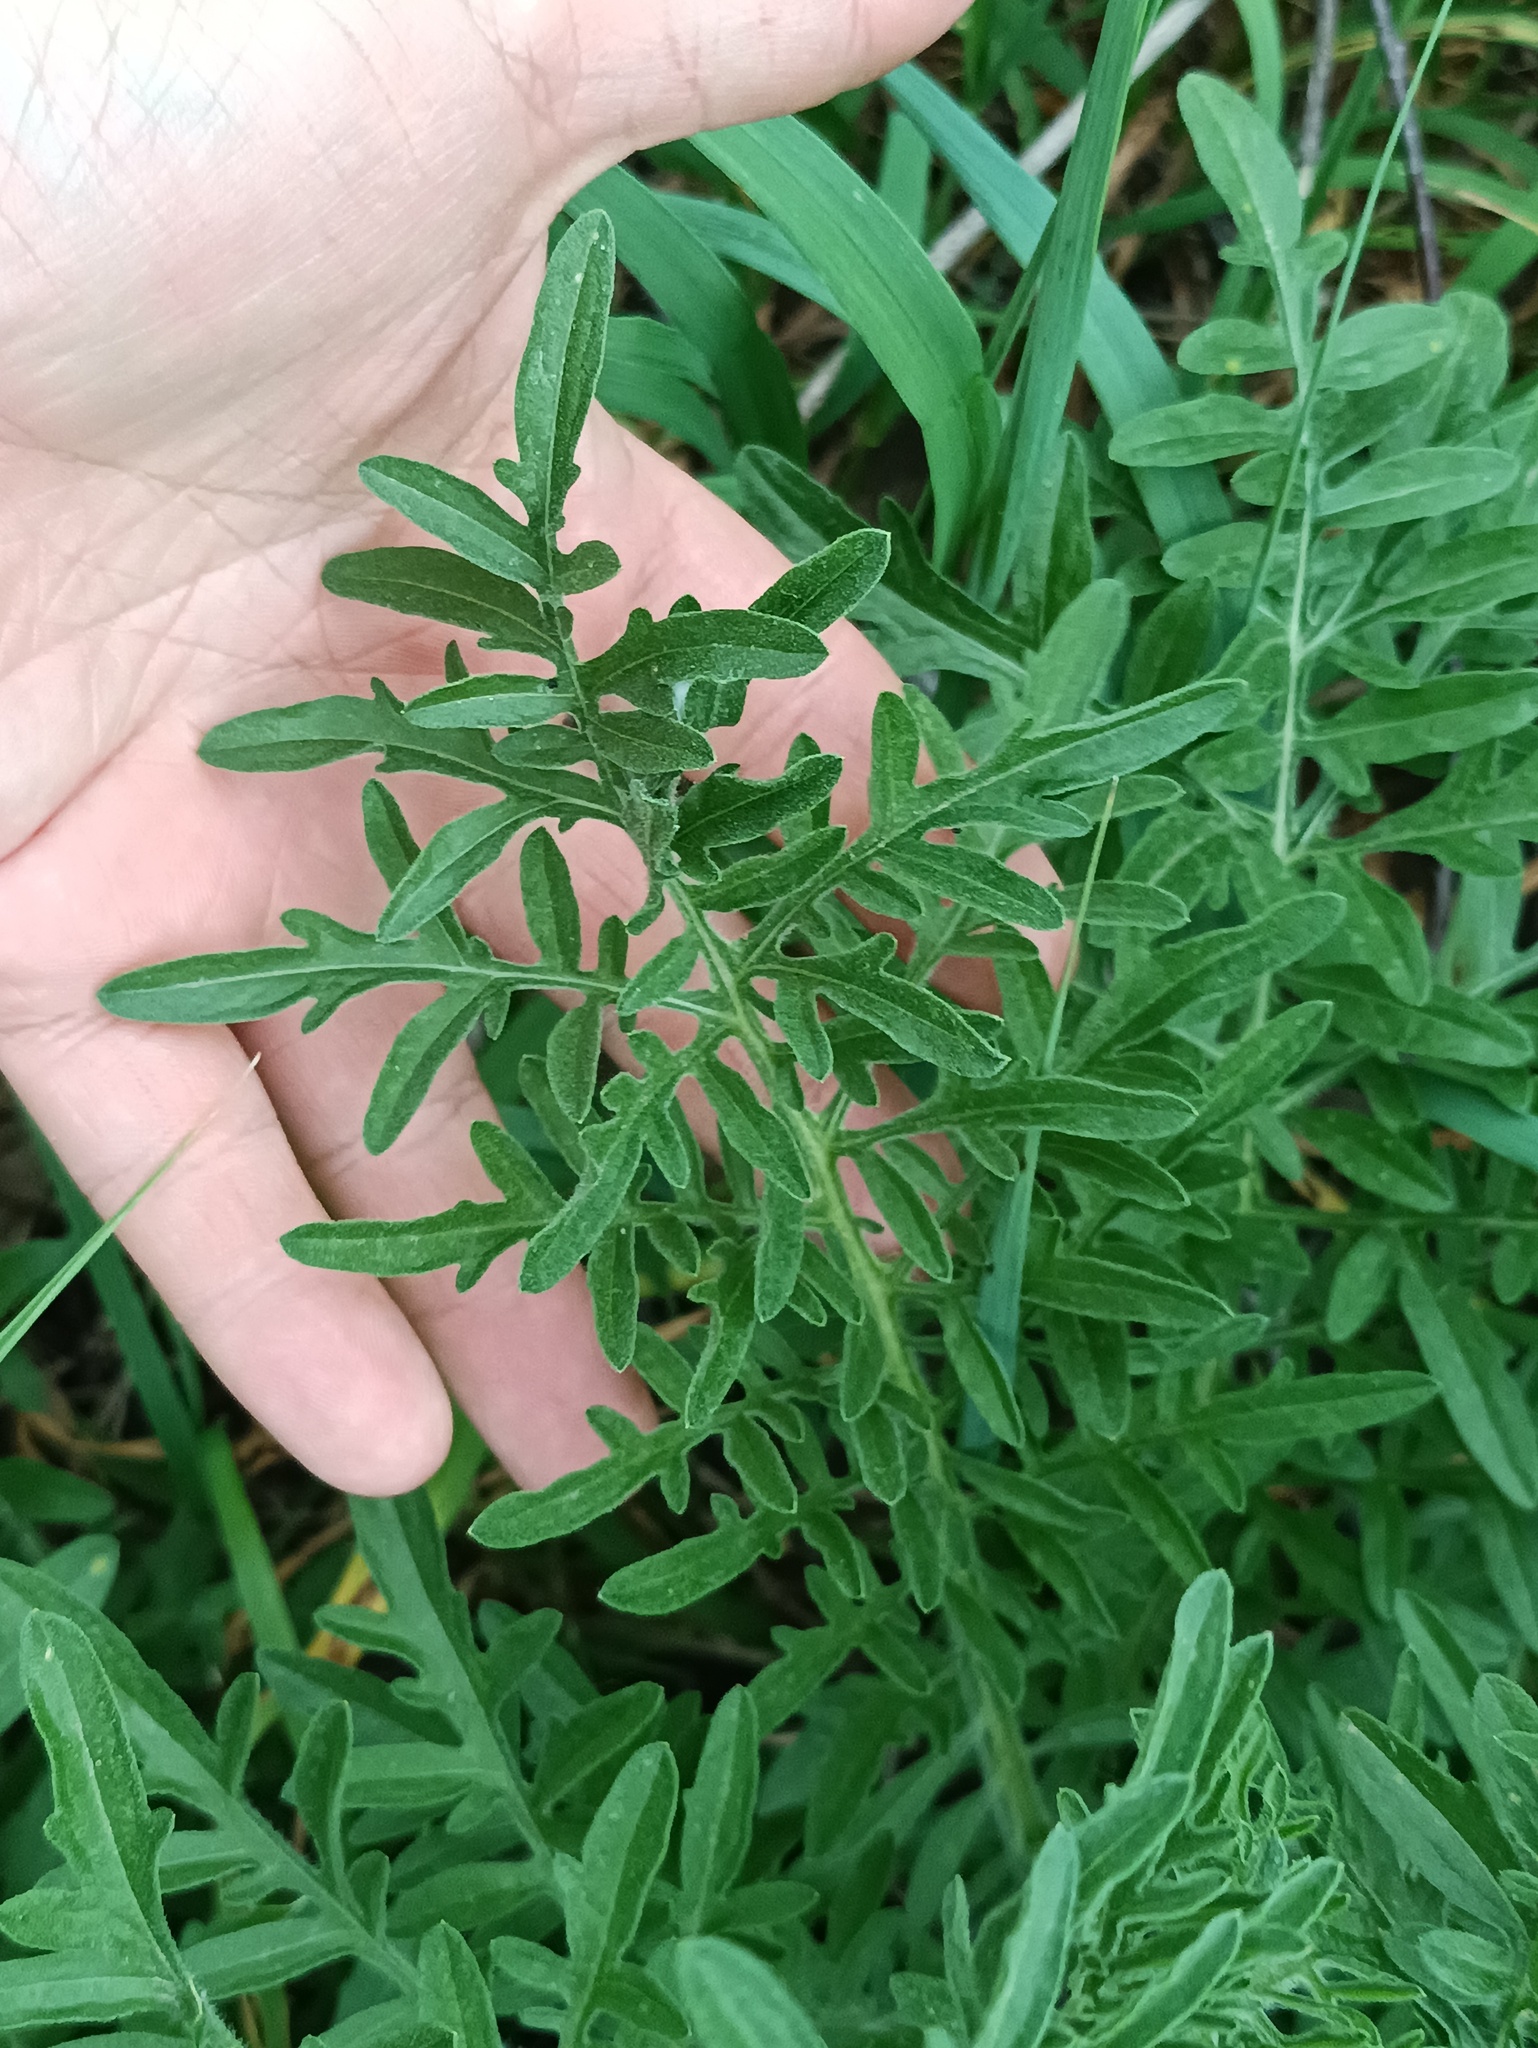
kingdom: Plantae
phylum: Tracheophyta
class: Magnoliopsida
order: Asterales
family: Asteraceae
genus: Centaurea
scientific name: Centaurea scabiosa
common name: Greater knapweed
